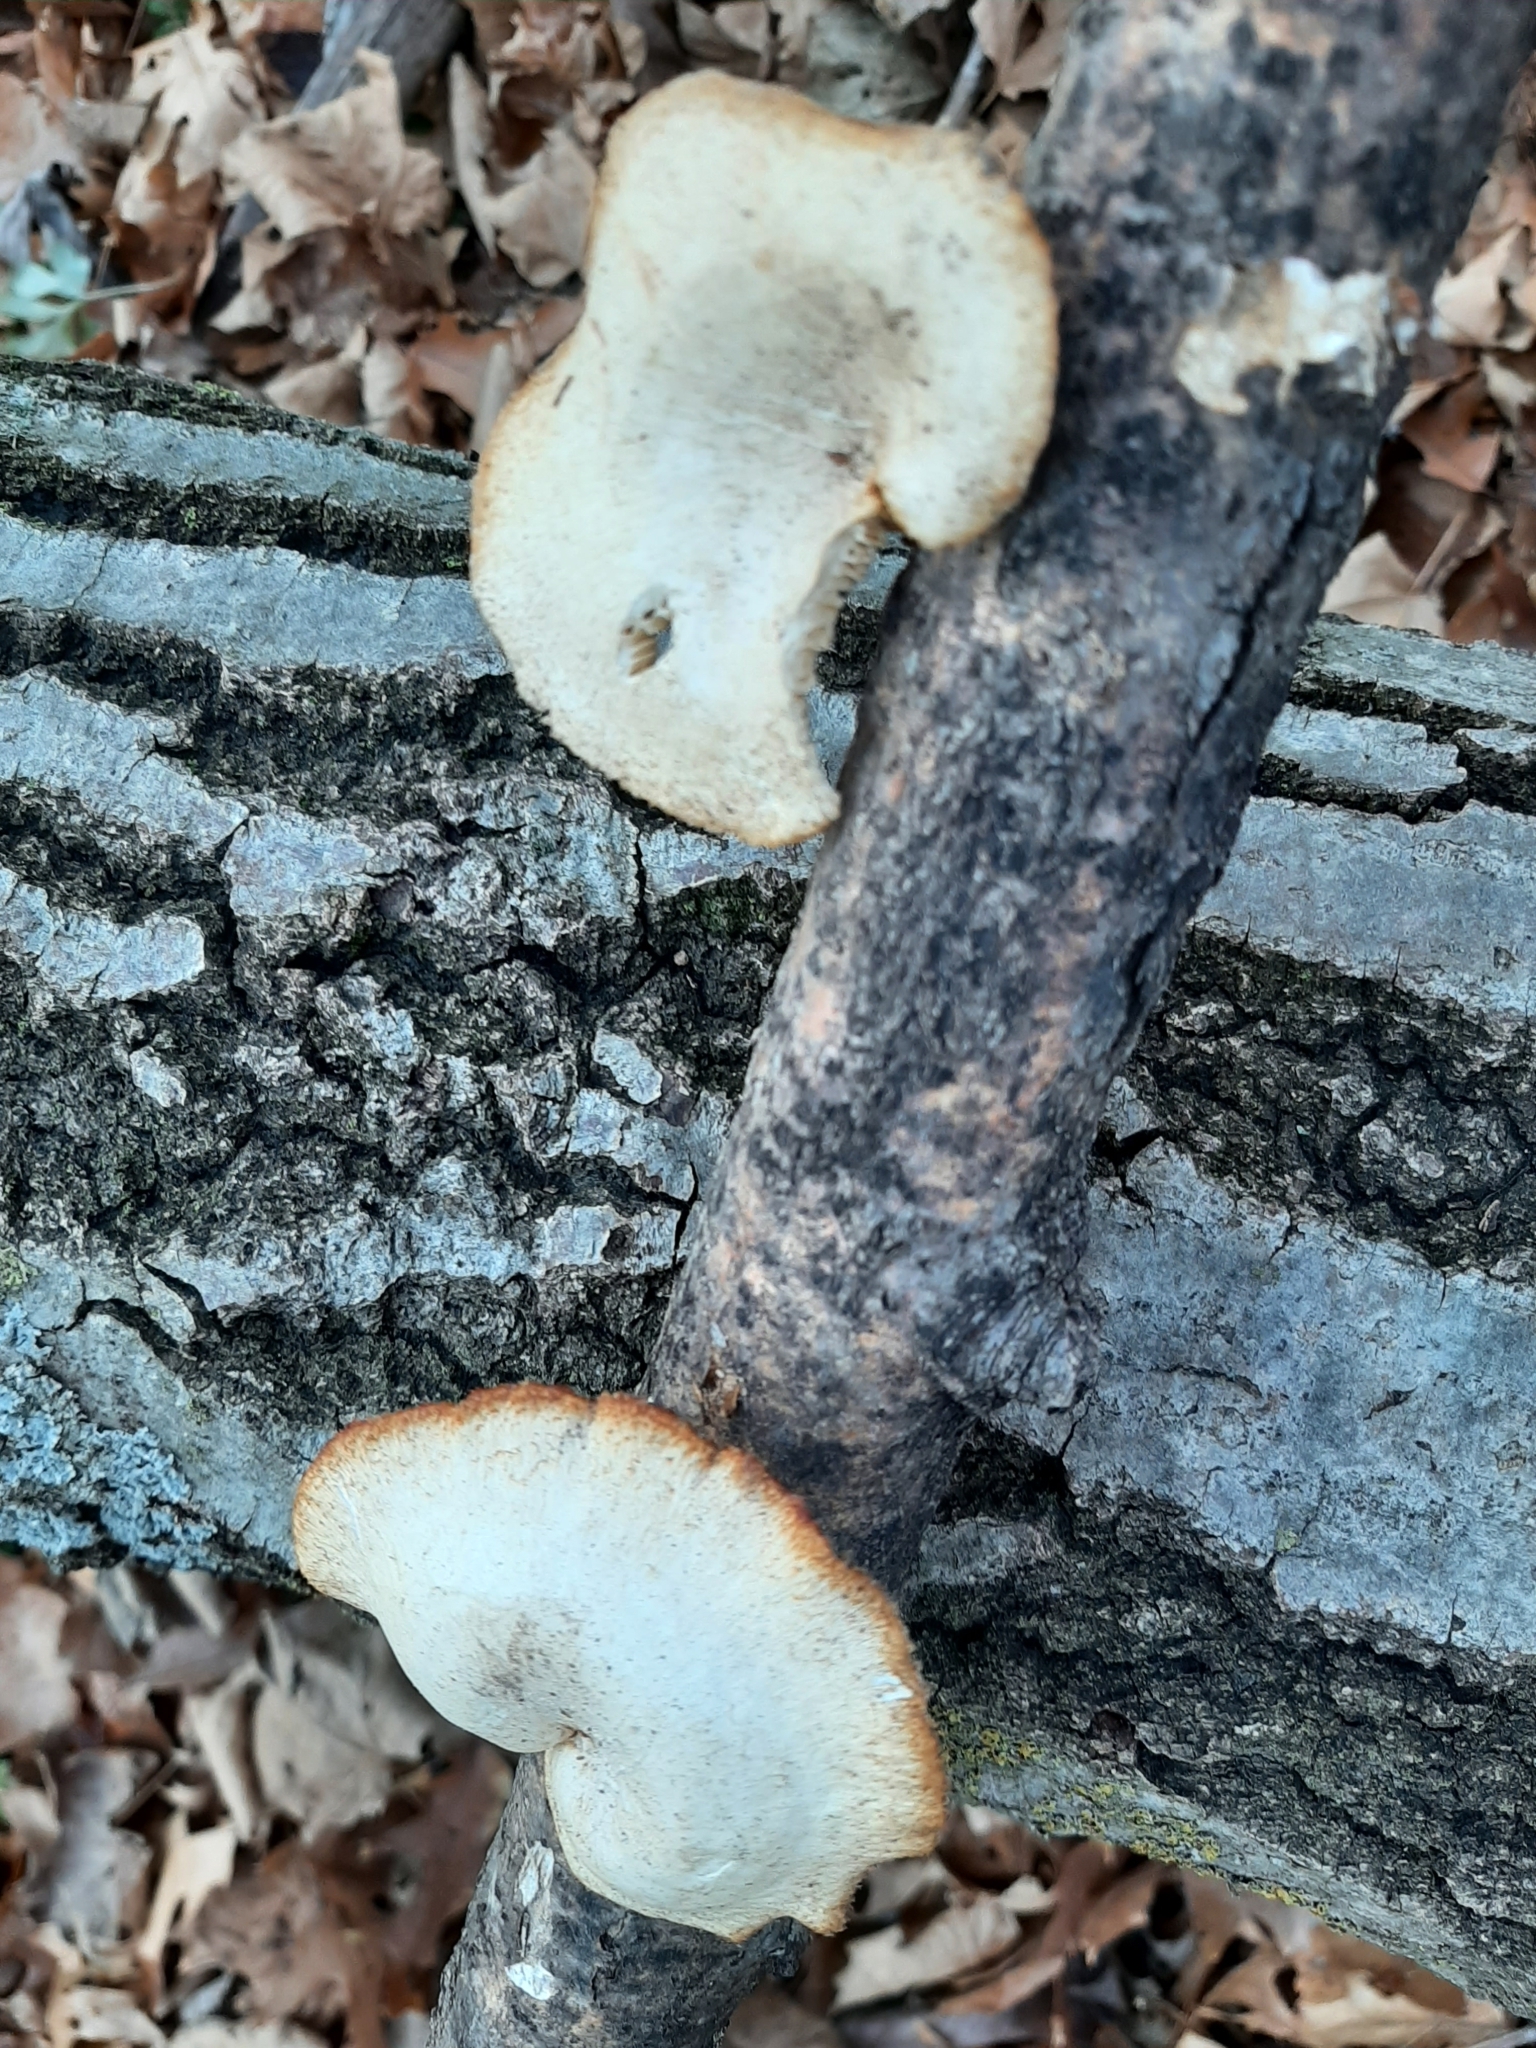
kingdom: Fungi
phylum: Basidiomycota
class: Agaricomycetes
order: Polyporales
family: Polyporaceae
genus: Neofavolus
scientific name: Neofavolus alveolaris
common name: Hexagonal-pored polypore
